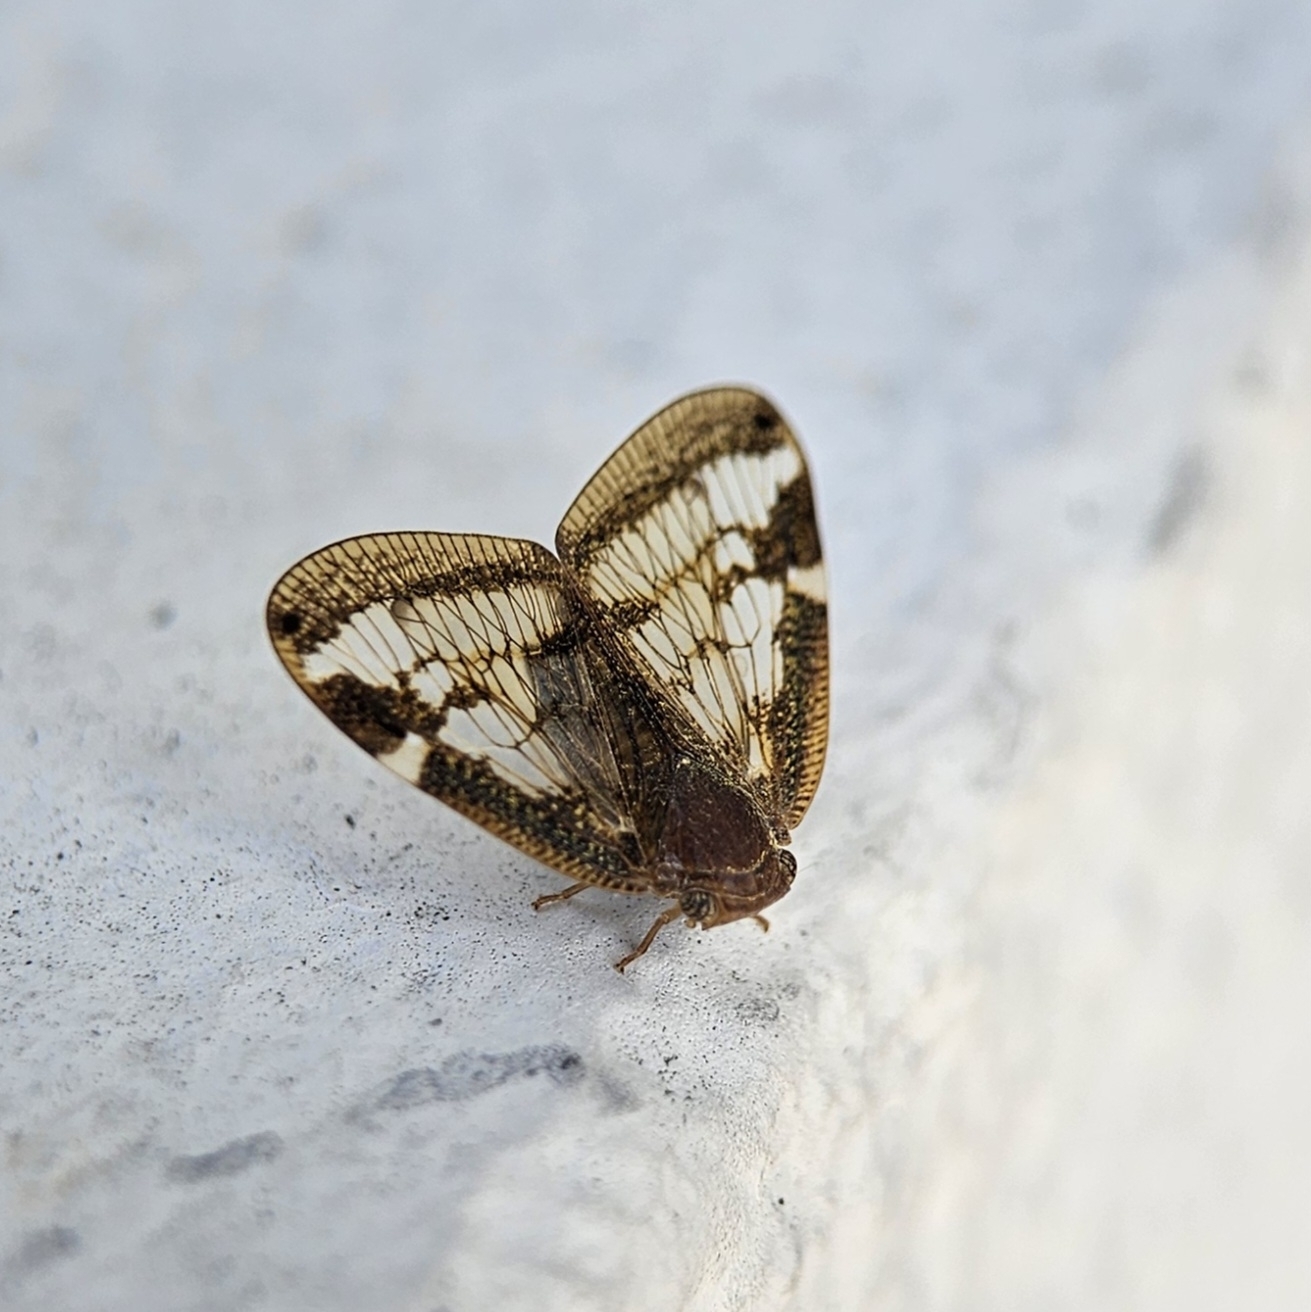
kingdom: Animalia
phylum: Arthropoda
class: Insecta
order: Hemiptera
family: Ricaniidae
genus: Scolypopa
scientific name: Scolypopa australis
